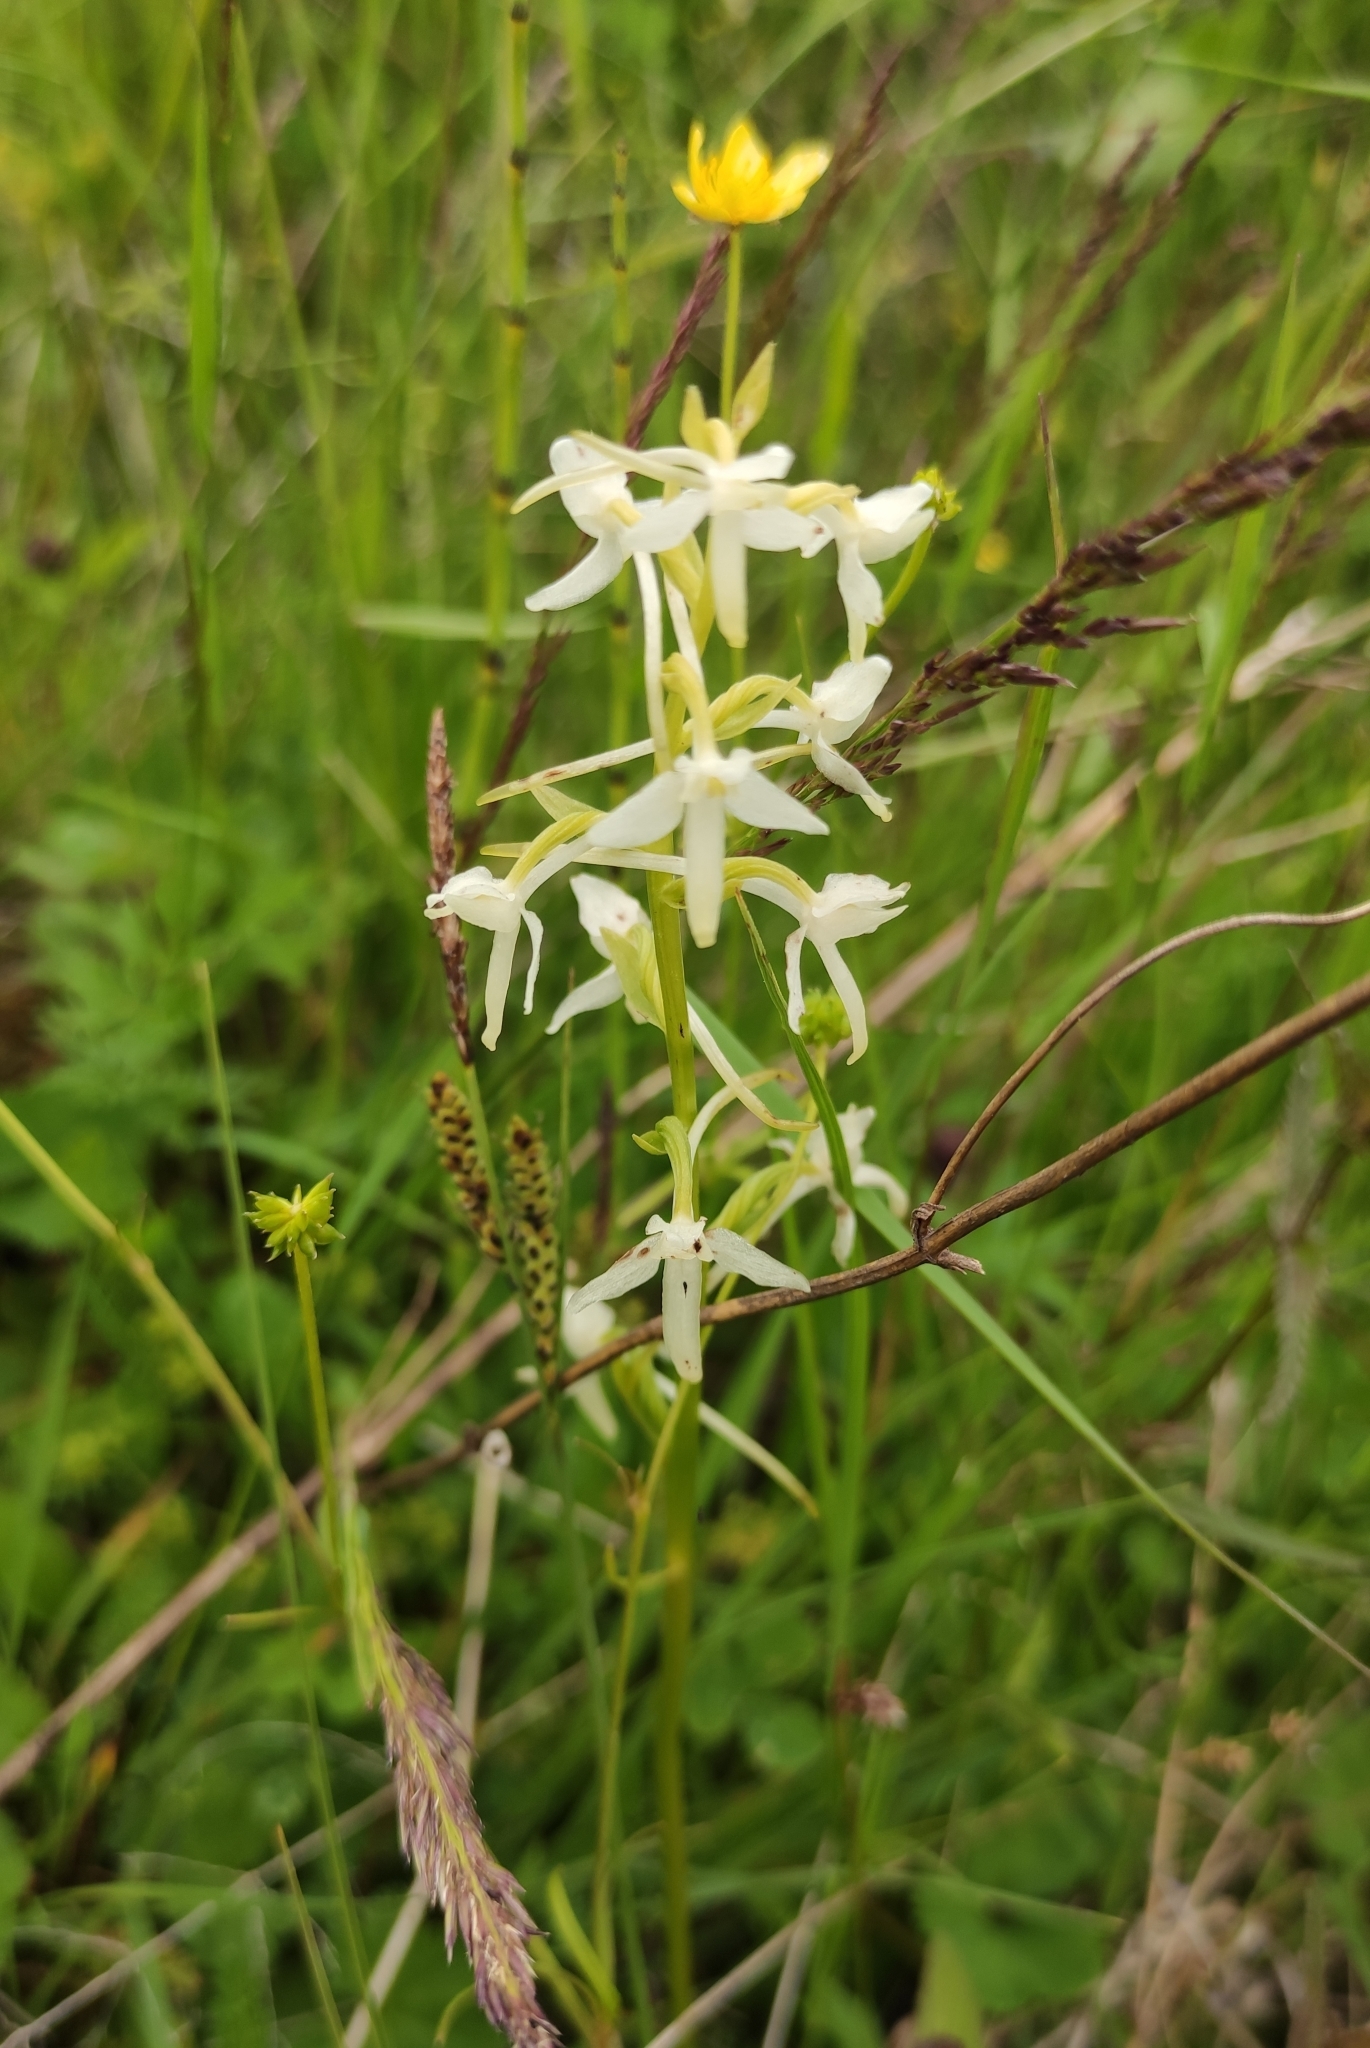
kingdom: Plantae
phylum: Tracheophyta
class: Liliopsida
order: Asparagales
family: Orchidaceae
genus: Platanthera
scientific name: Platanthera bifolia
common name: Lesser butterfly-orchid
